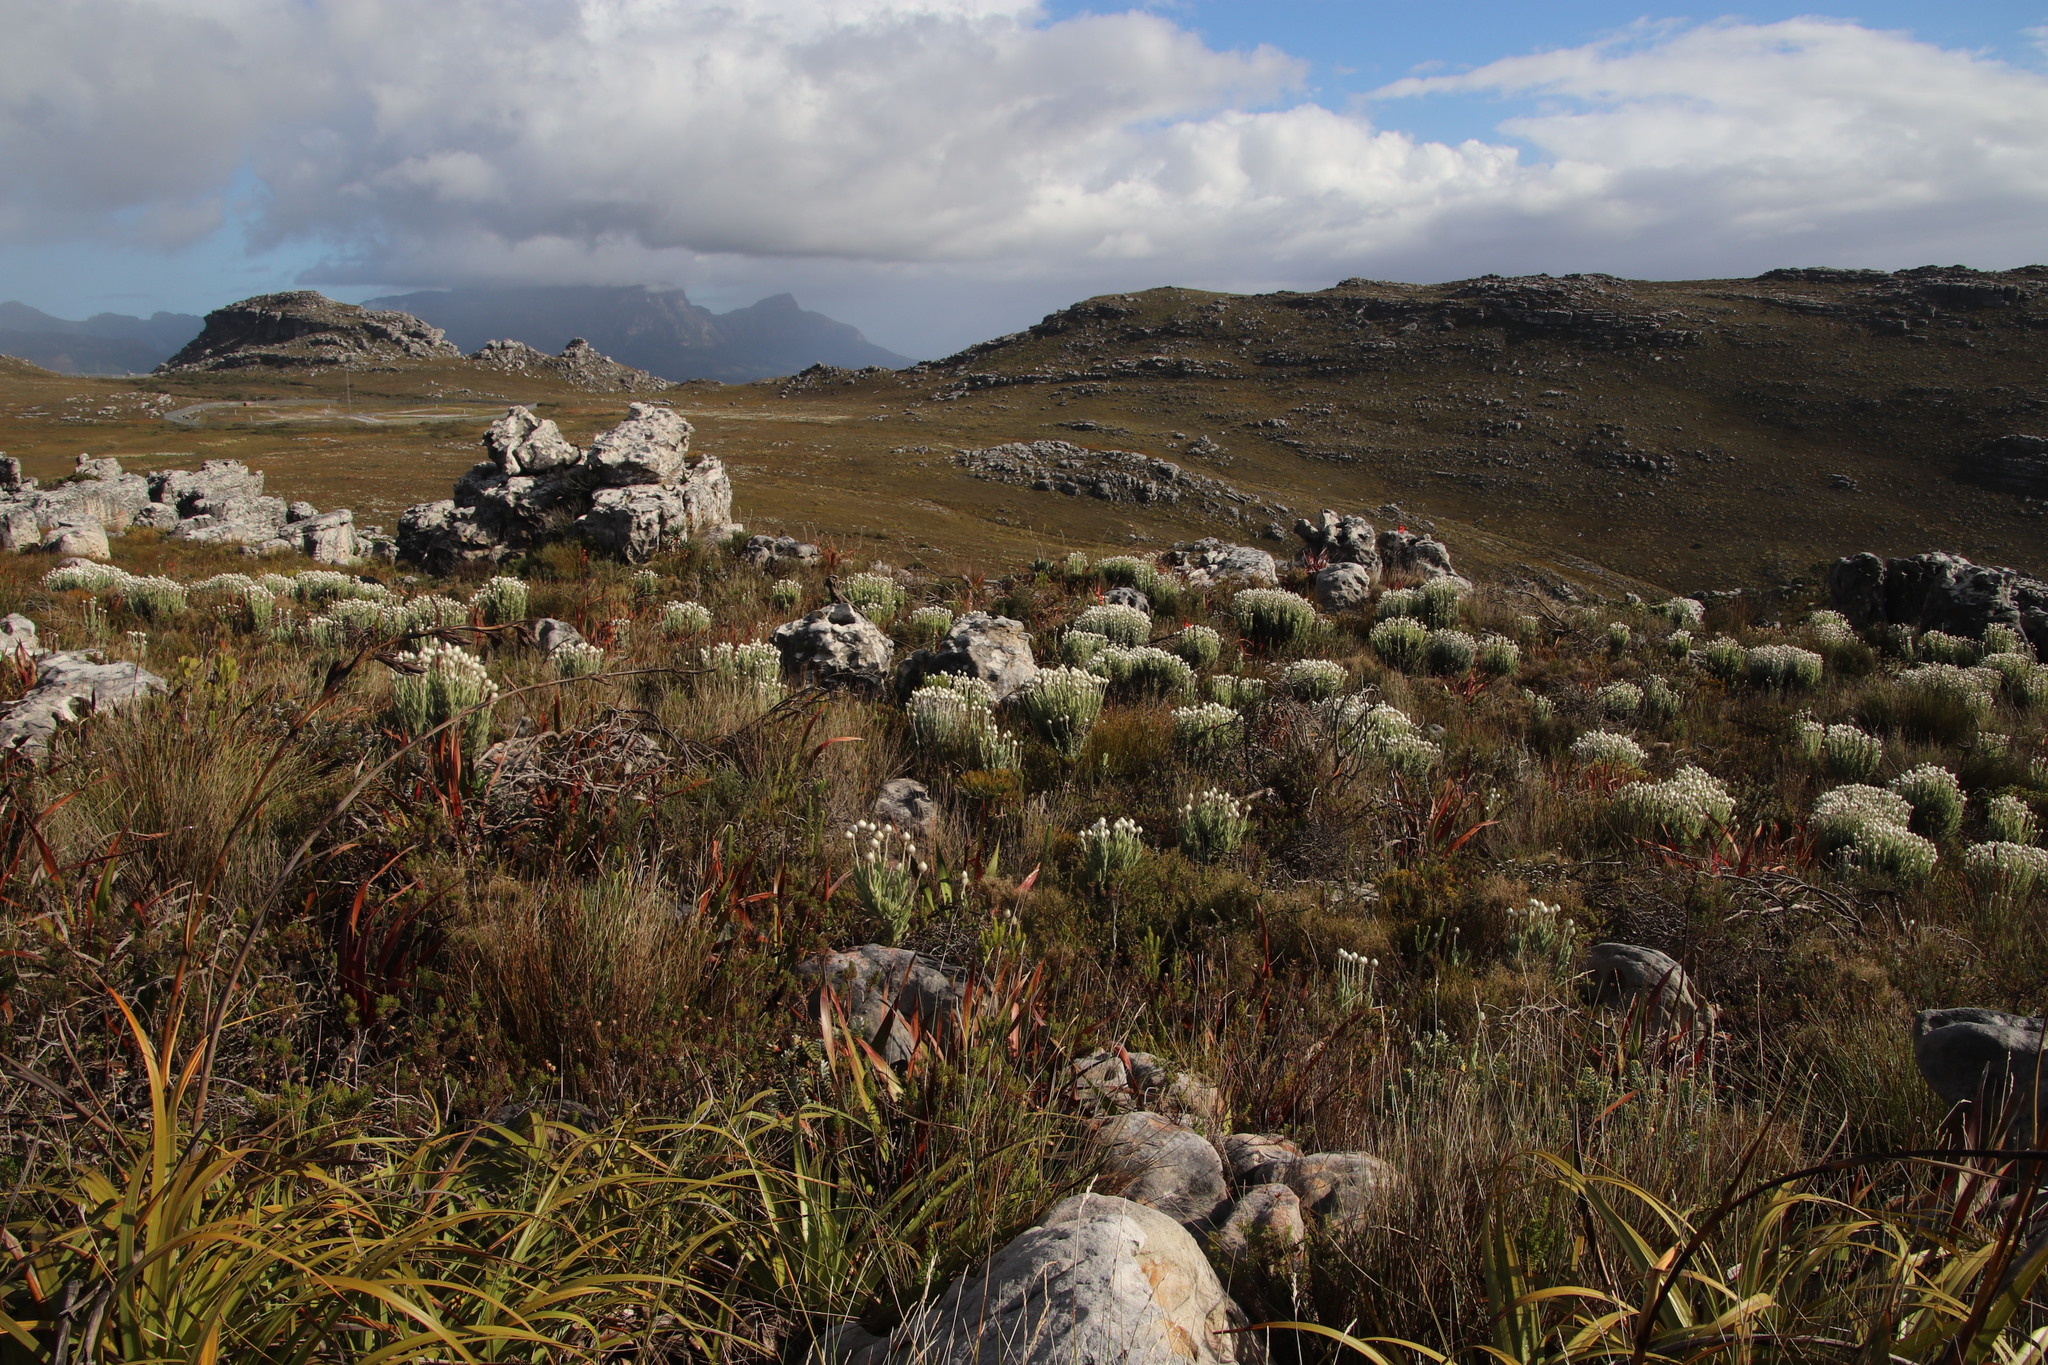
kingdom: Plantae
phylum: Tracheophyta
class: Magnoliopsida
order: Asterales
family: Asteraceae
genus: Syncarpha
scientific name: Syncarpha vestita
